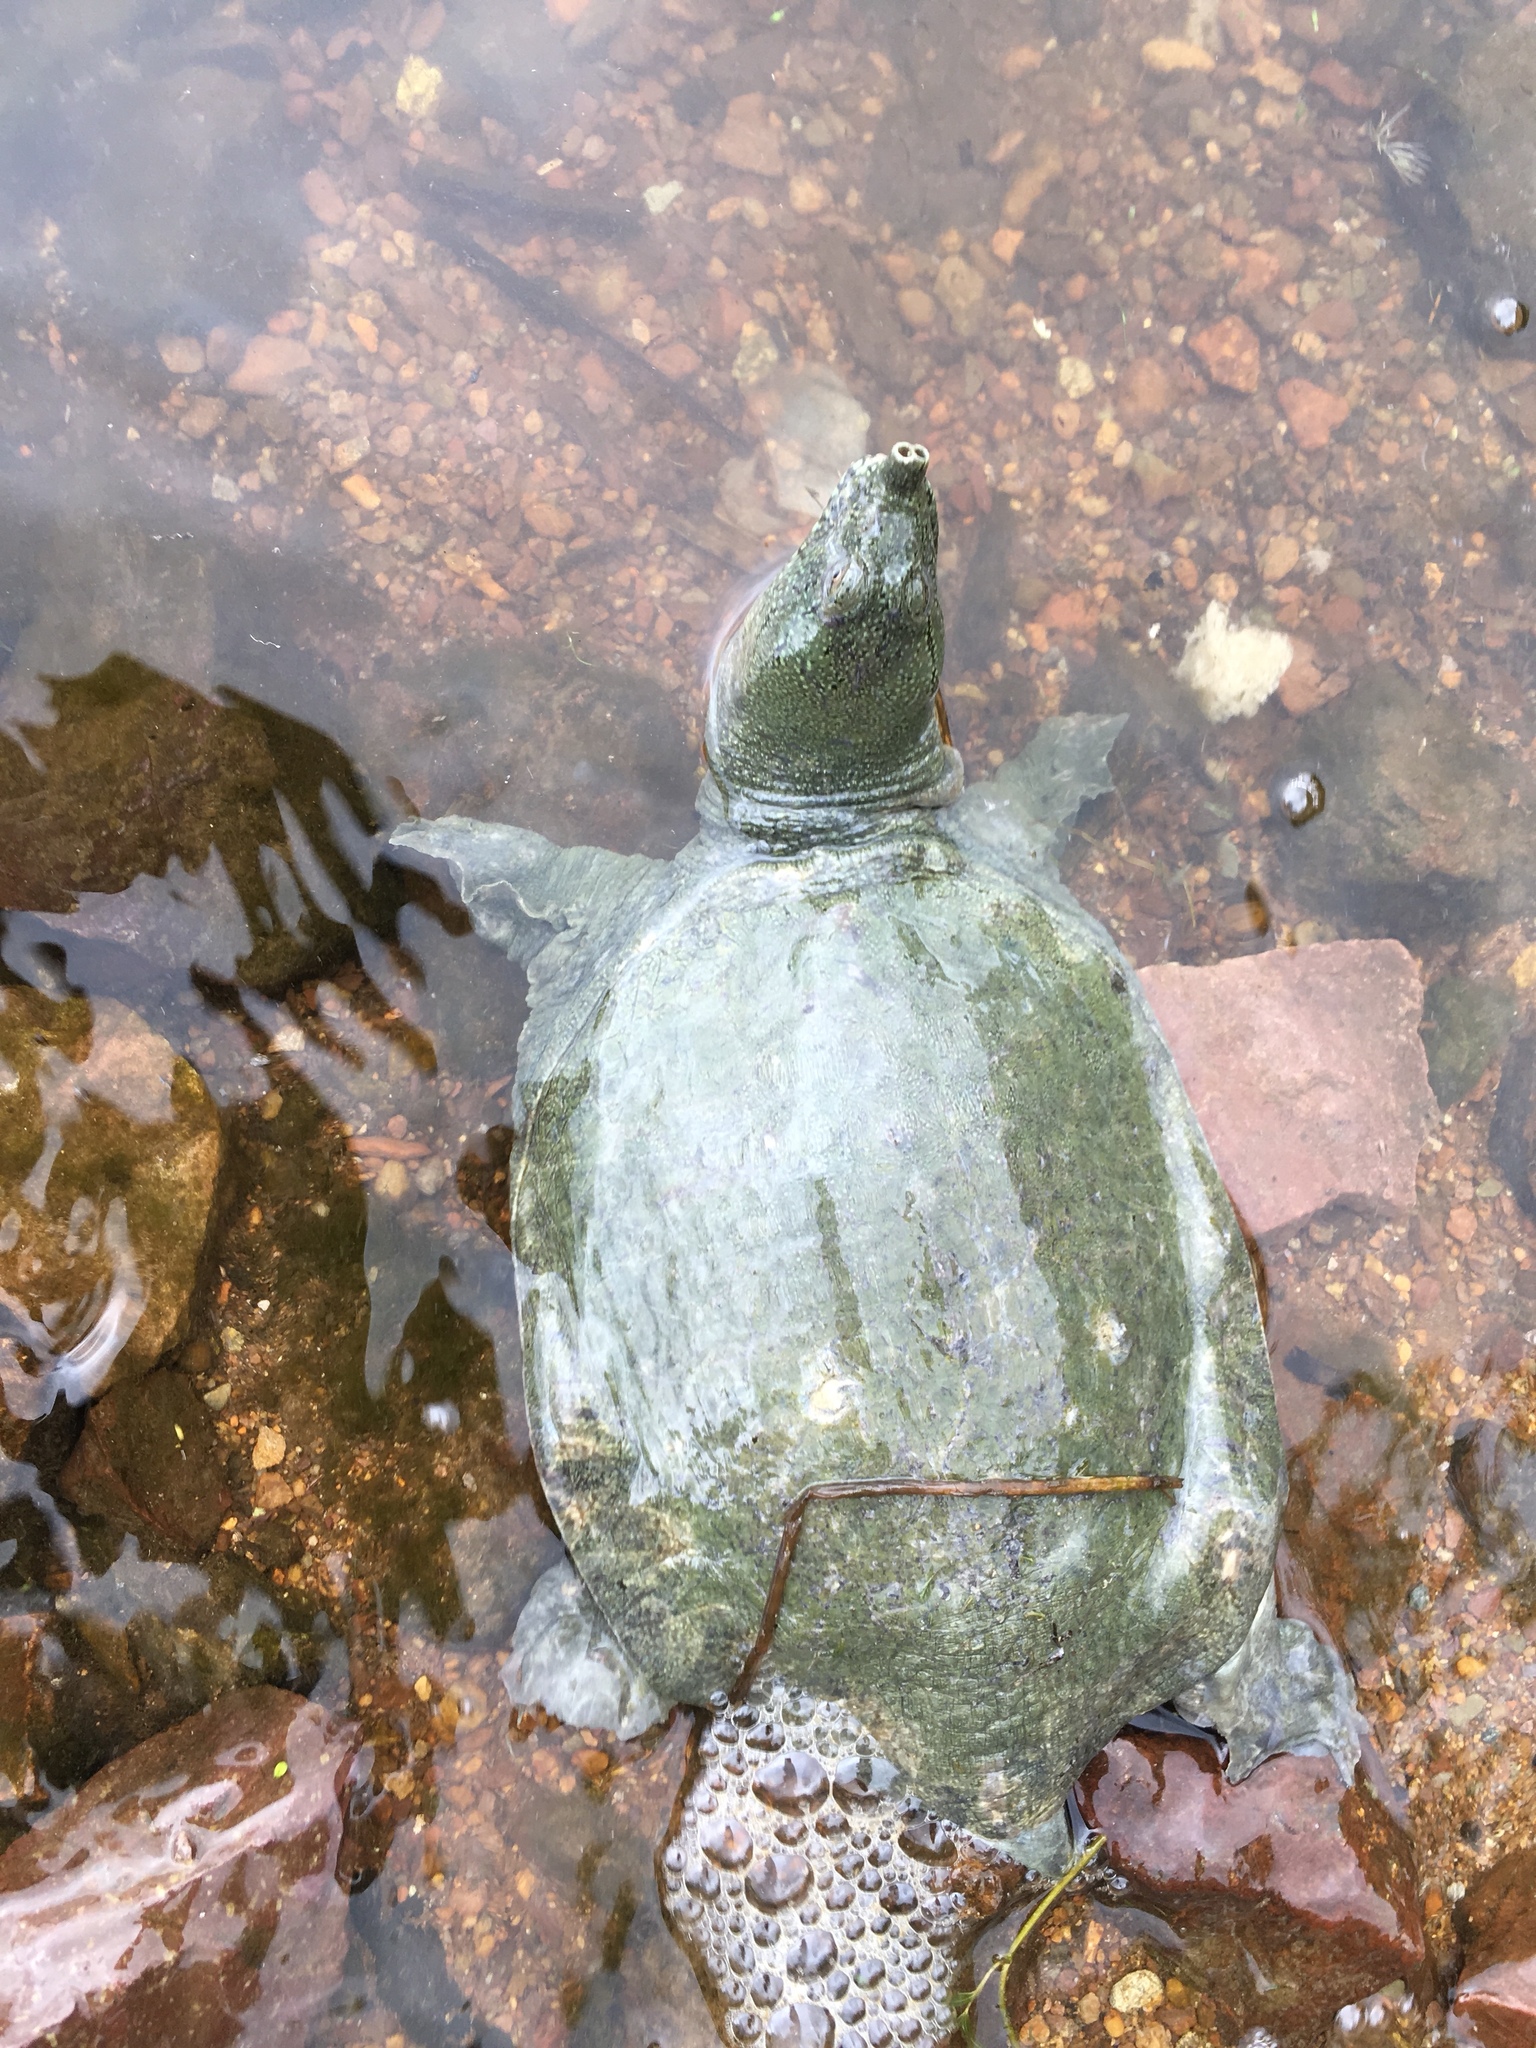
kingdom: Animalia
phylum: Chordata
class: Testudines
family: Trionychidae
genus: Pelodiscus
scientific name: Pelodiscus sinensis
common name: Chinese softshell turtle
